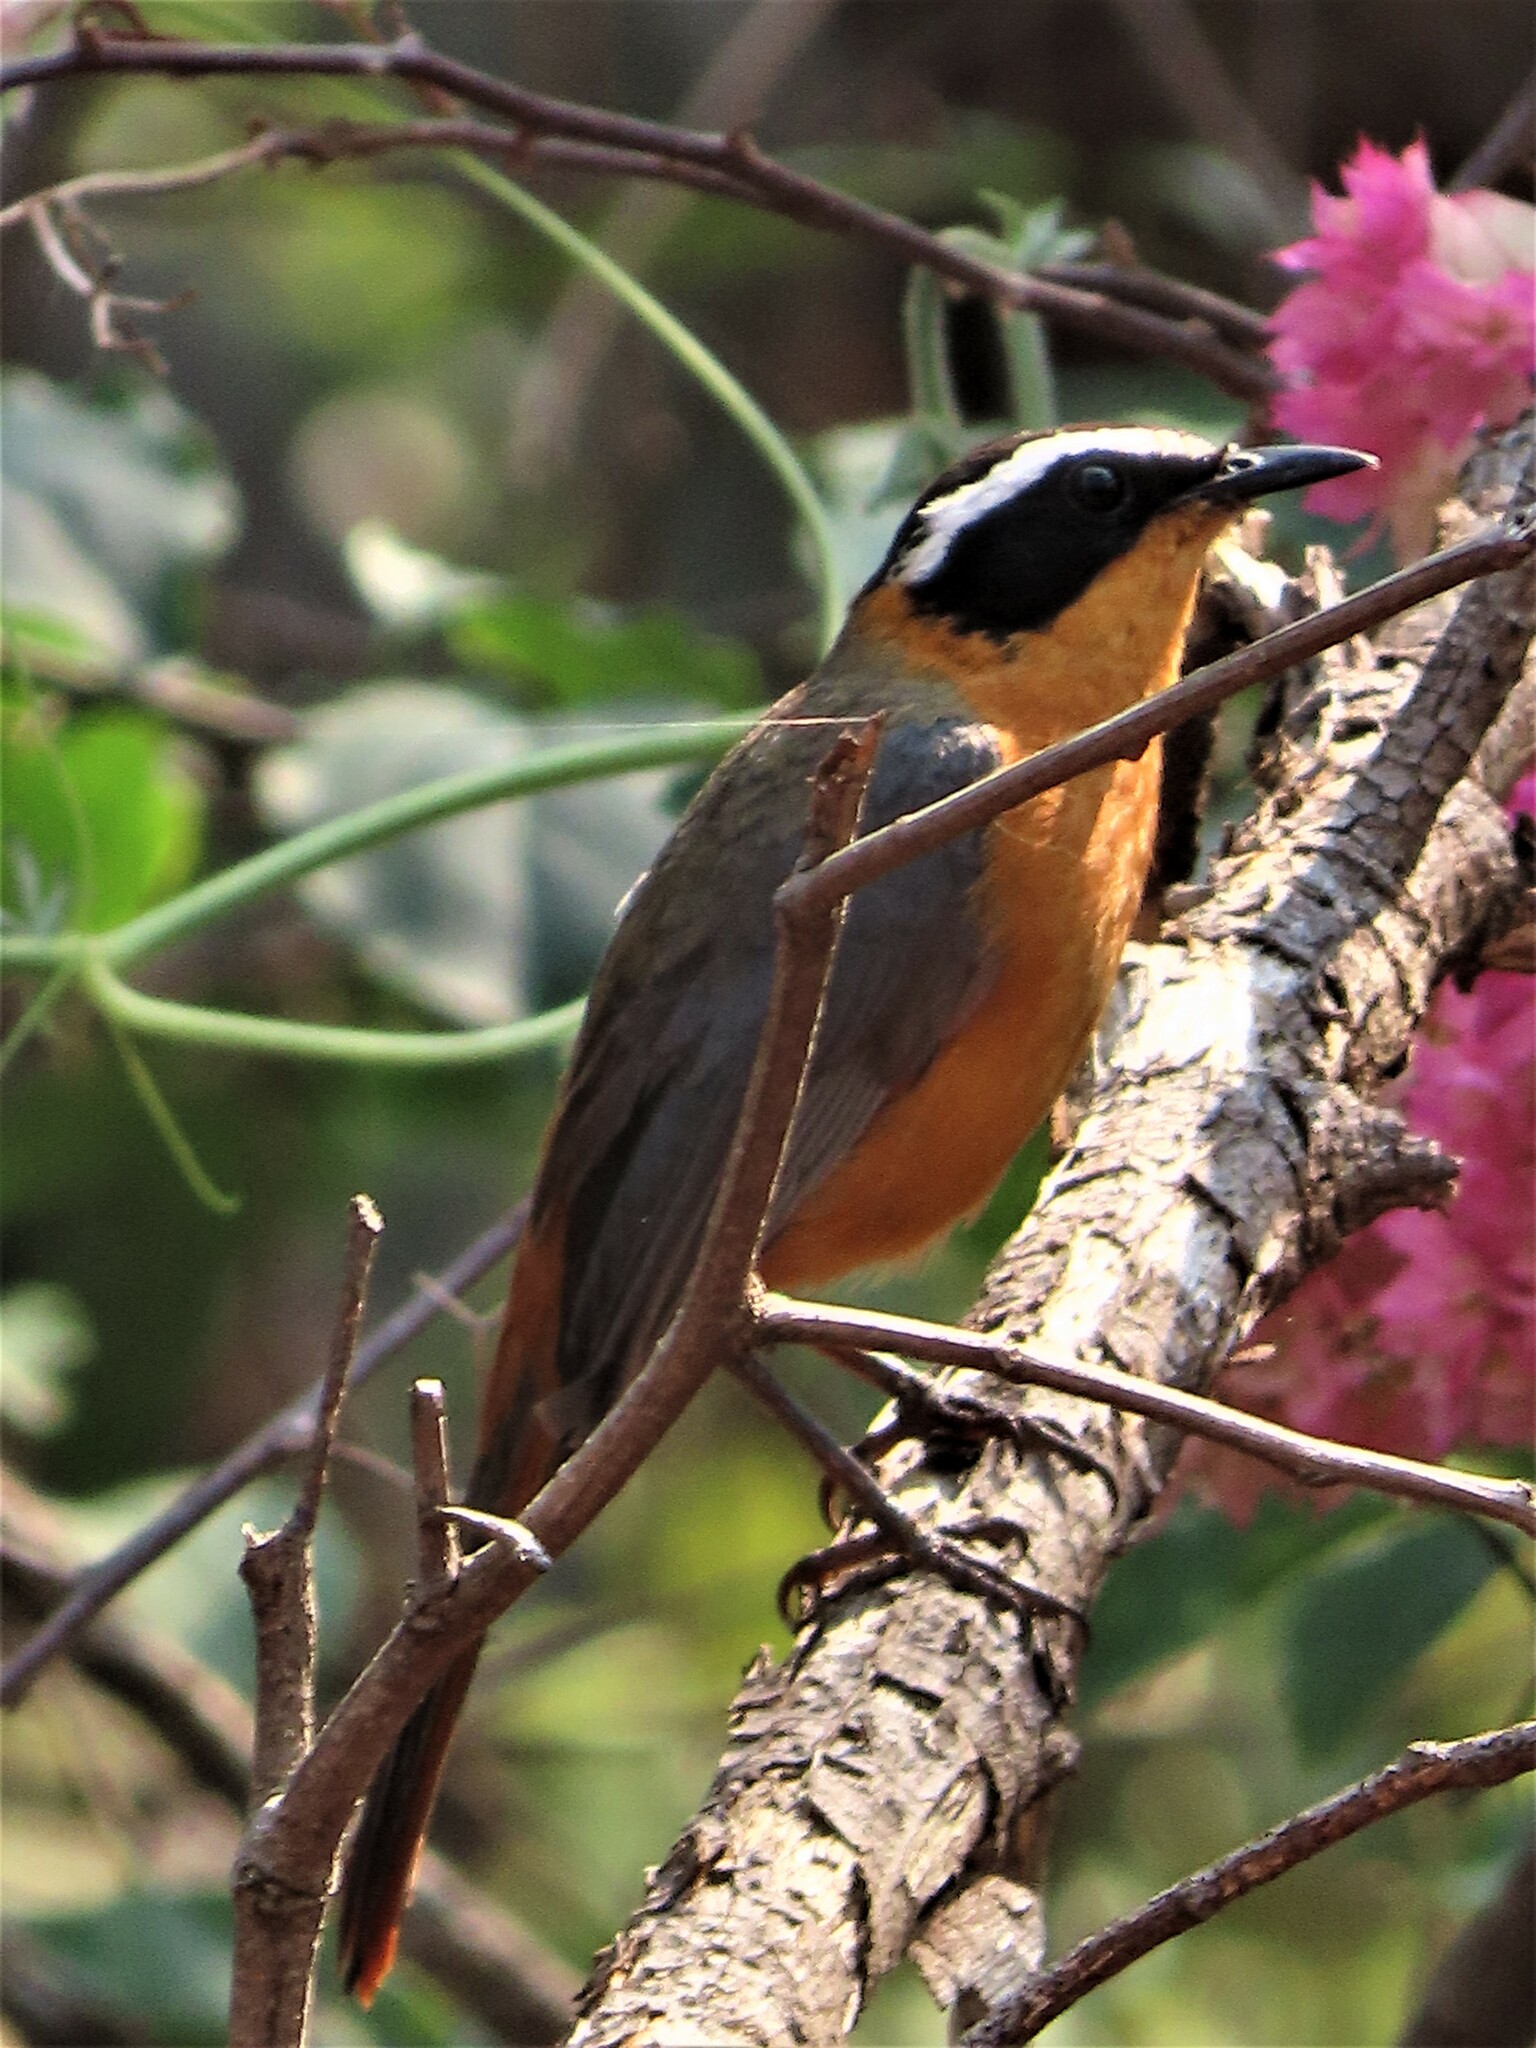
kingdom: Animalia
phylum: Chordata
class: Aves
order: Passeriformes
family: Muscicapidae
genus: Cossypha
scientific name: Cossypha heuglini
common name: White-browed robin-chat
